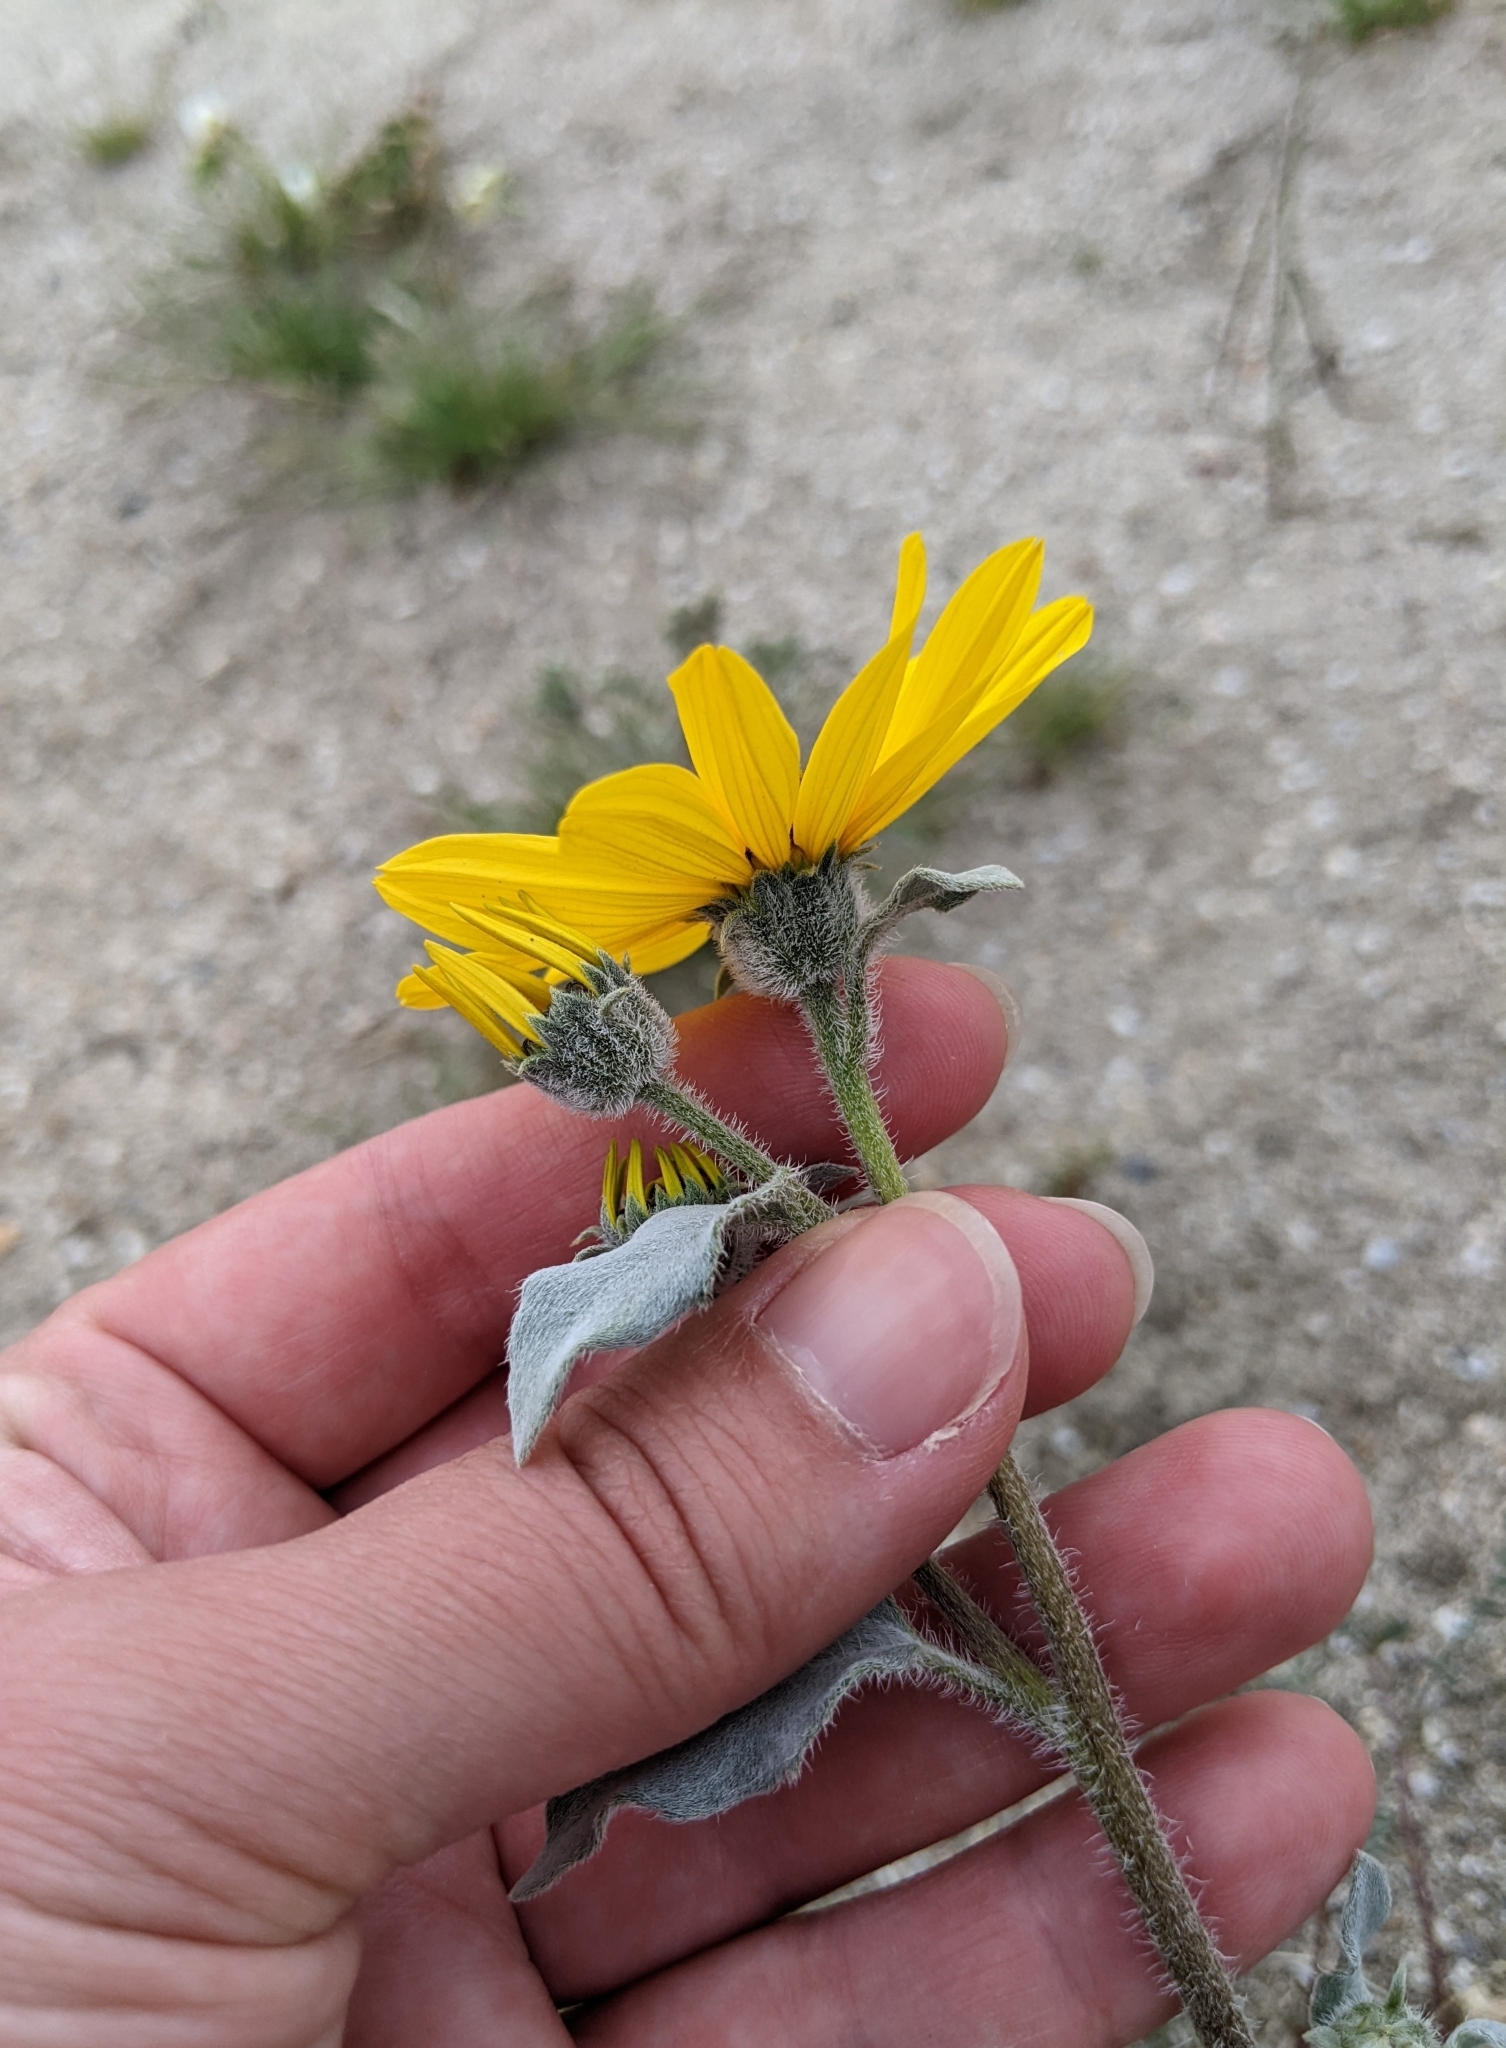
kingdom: Plantae
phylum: Tracheophyta
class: Magnoliopsida
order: Asterales
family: Asteraceae
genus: Helianthus
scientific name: Helianthus petiolaris
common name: Lesser sunflower
